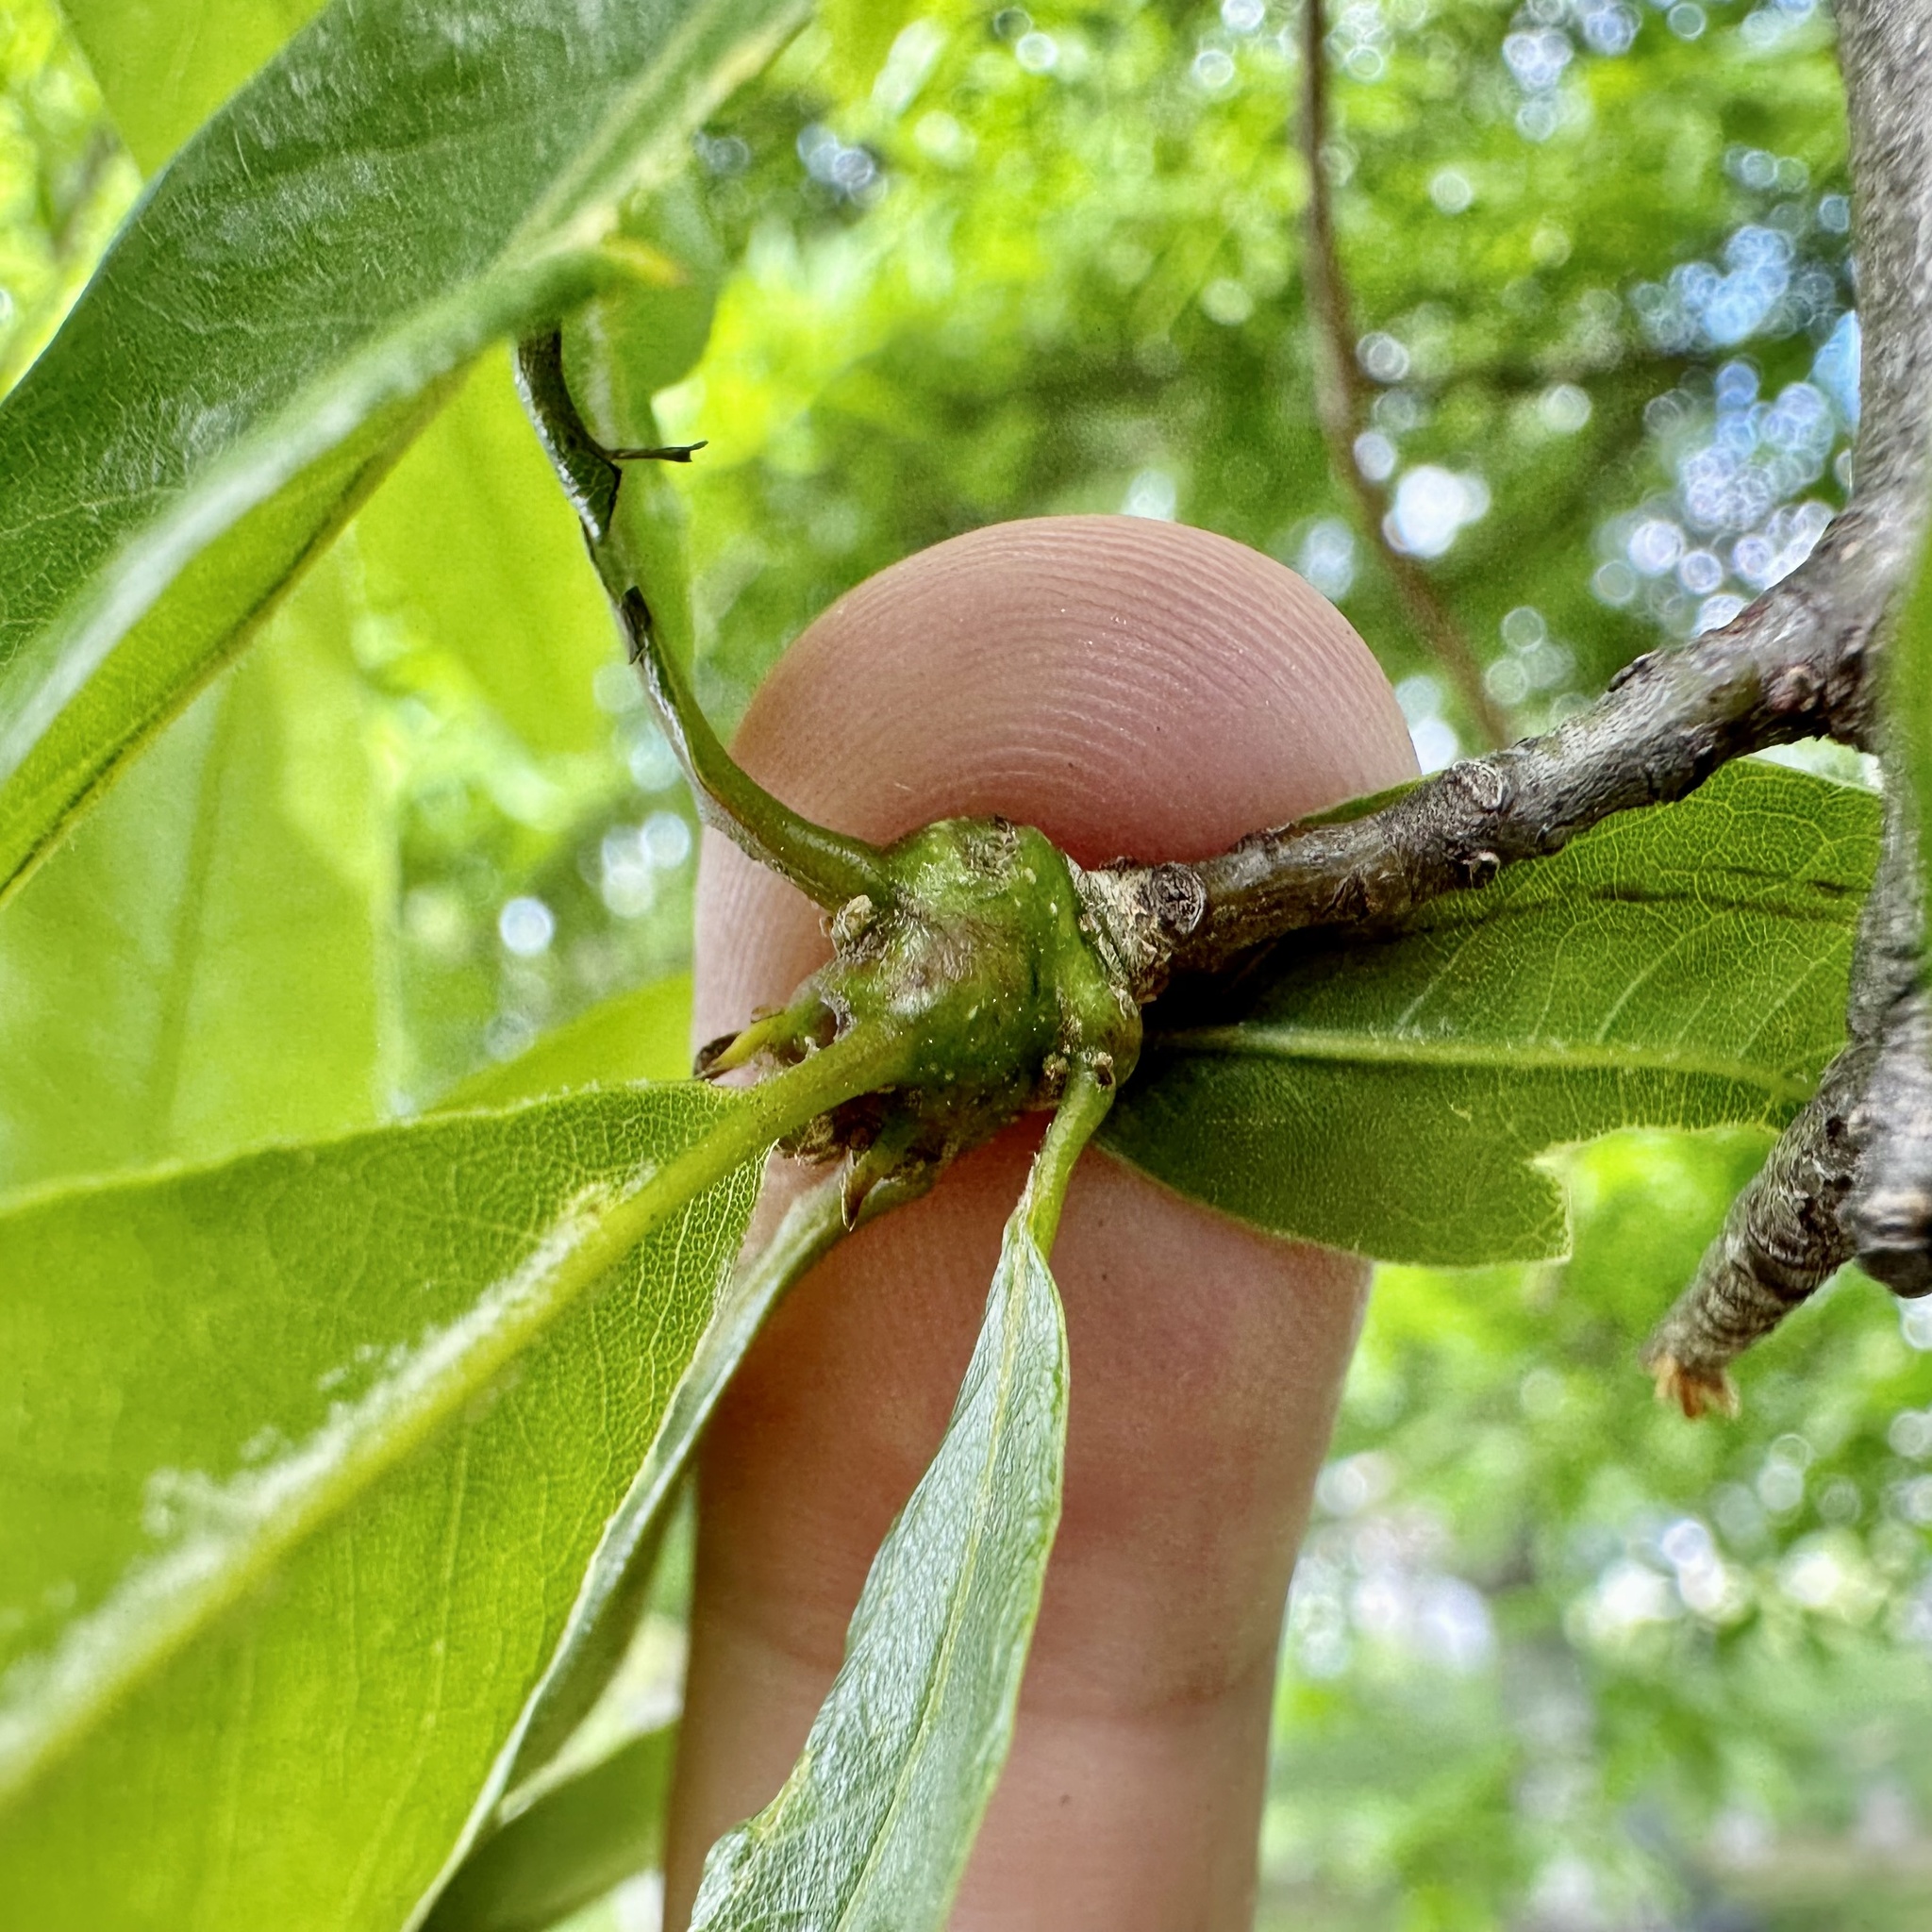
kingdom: Animalia
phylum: Arthropoda
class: Insecta
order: Hymenoptera
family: Cynipidae
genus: Callirhytis
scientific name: Callirhytis
